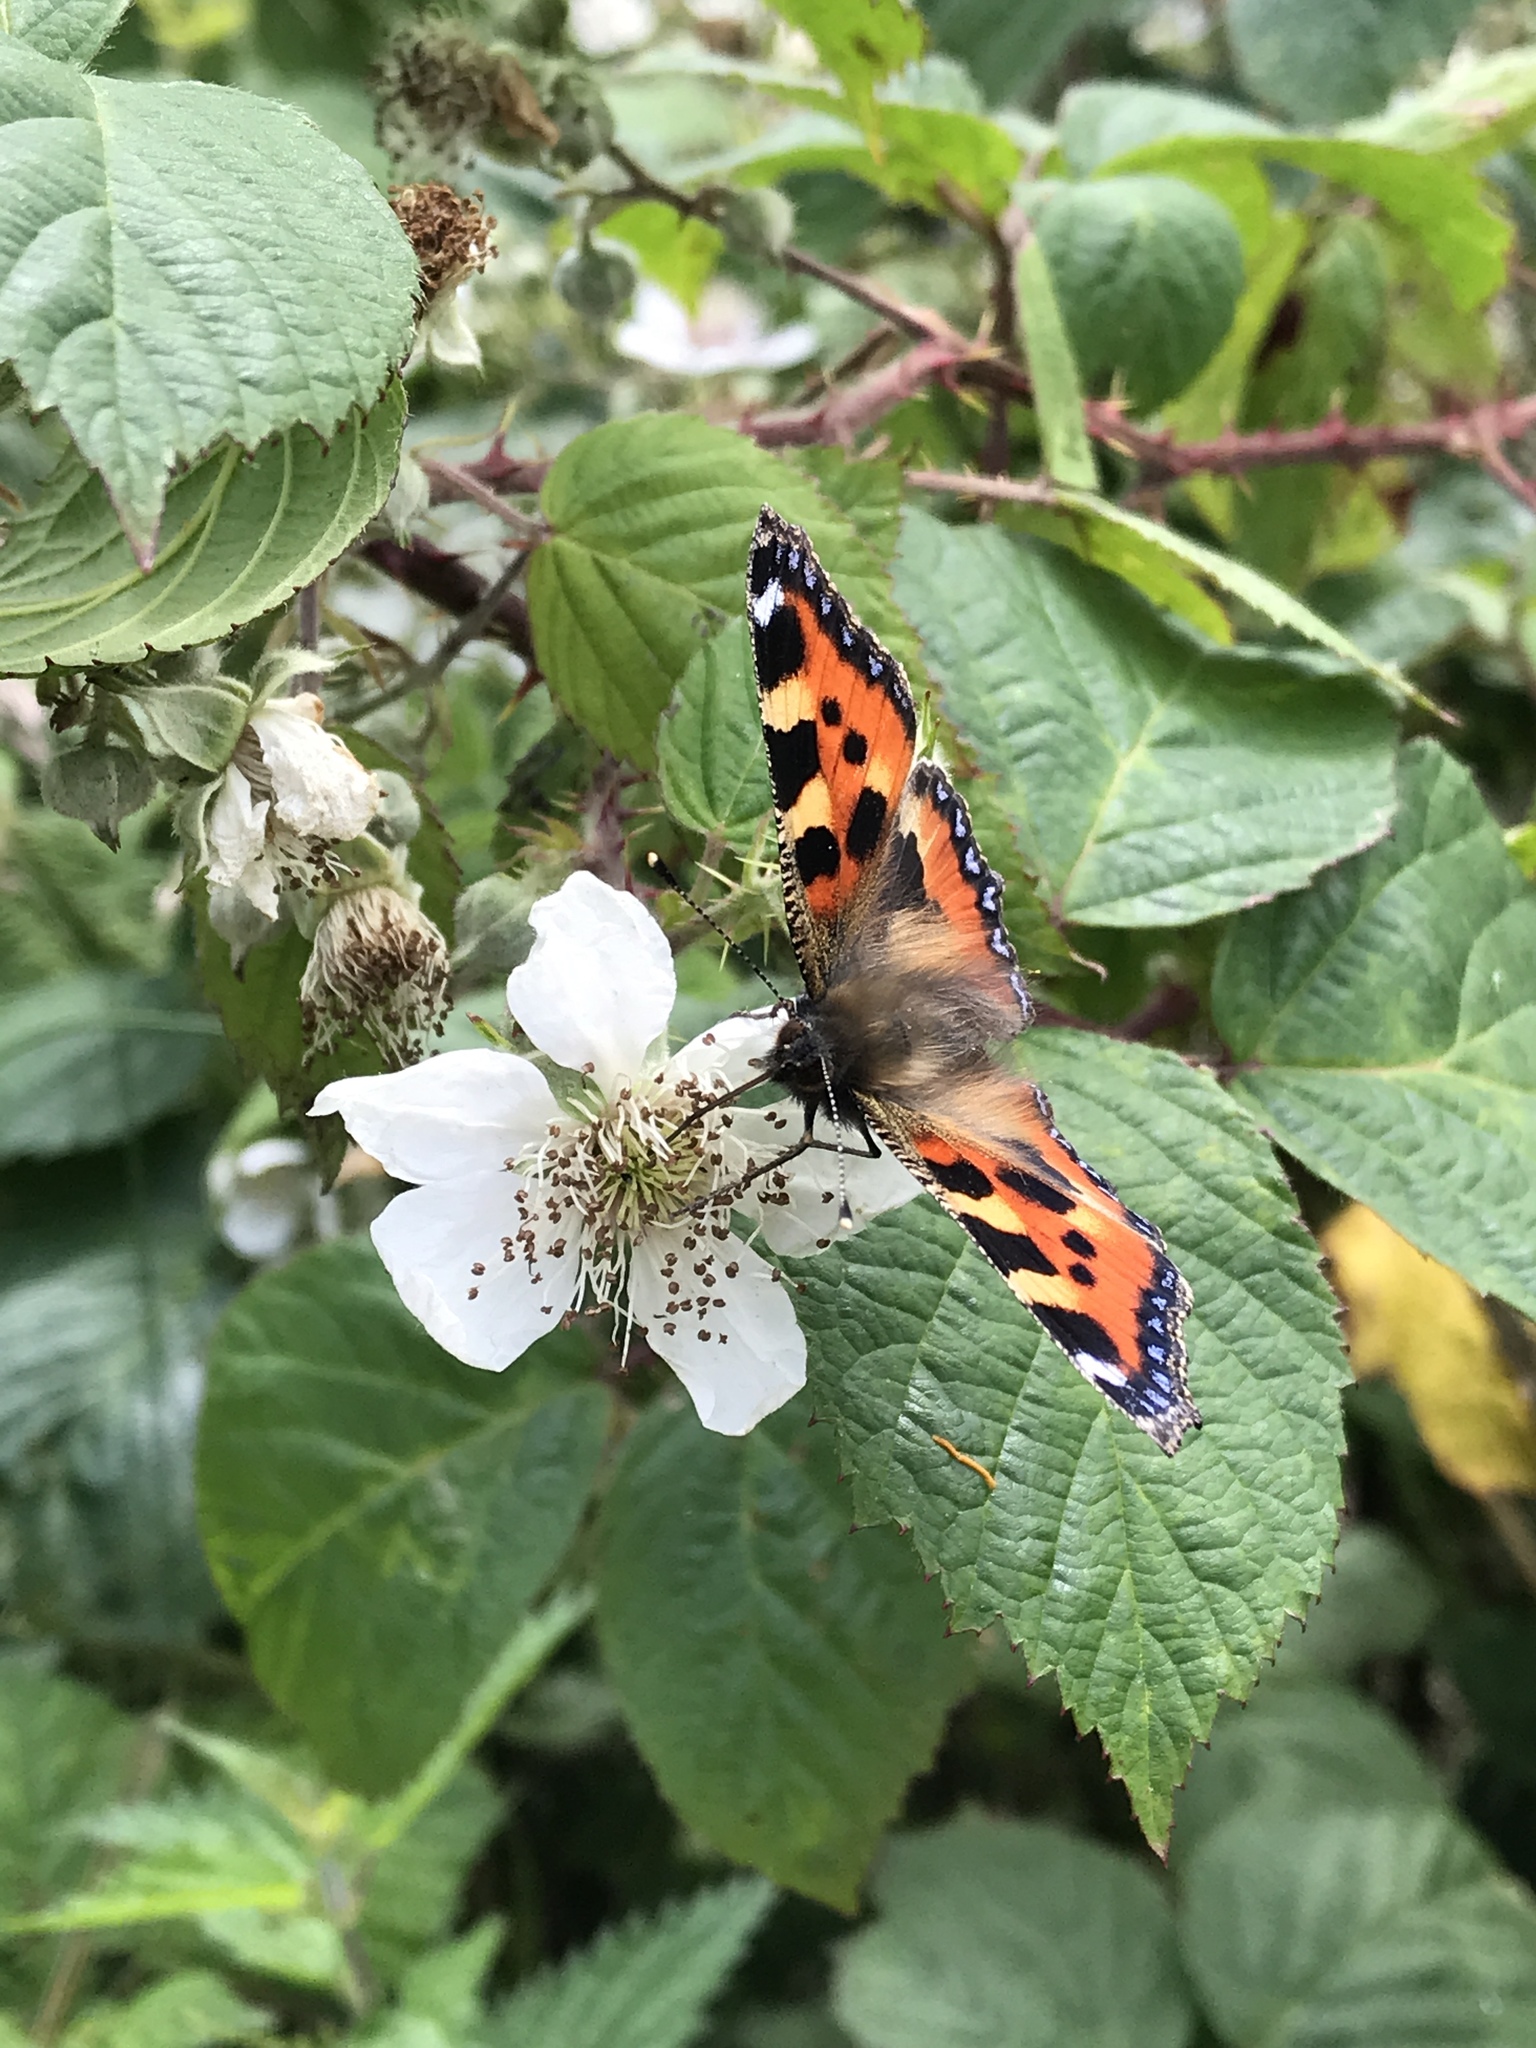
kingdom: Animalia
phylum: Arthropoda
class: Insecta
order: Lepidoptera
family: Nymphalidae
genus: Aglais
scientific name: Aglais urticae
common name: Small tortoiseshell
